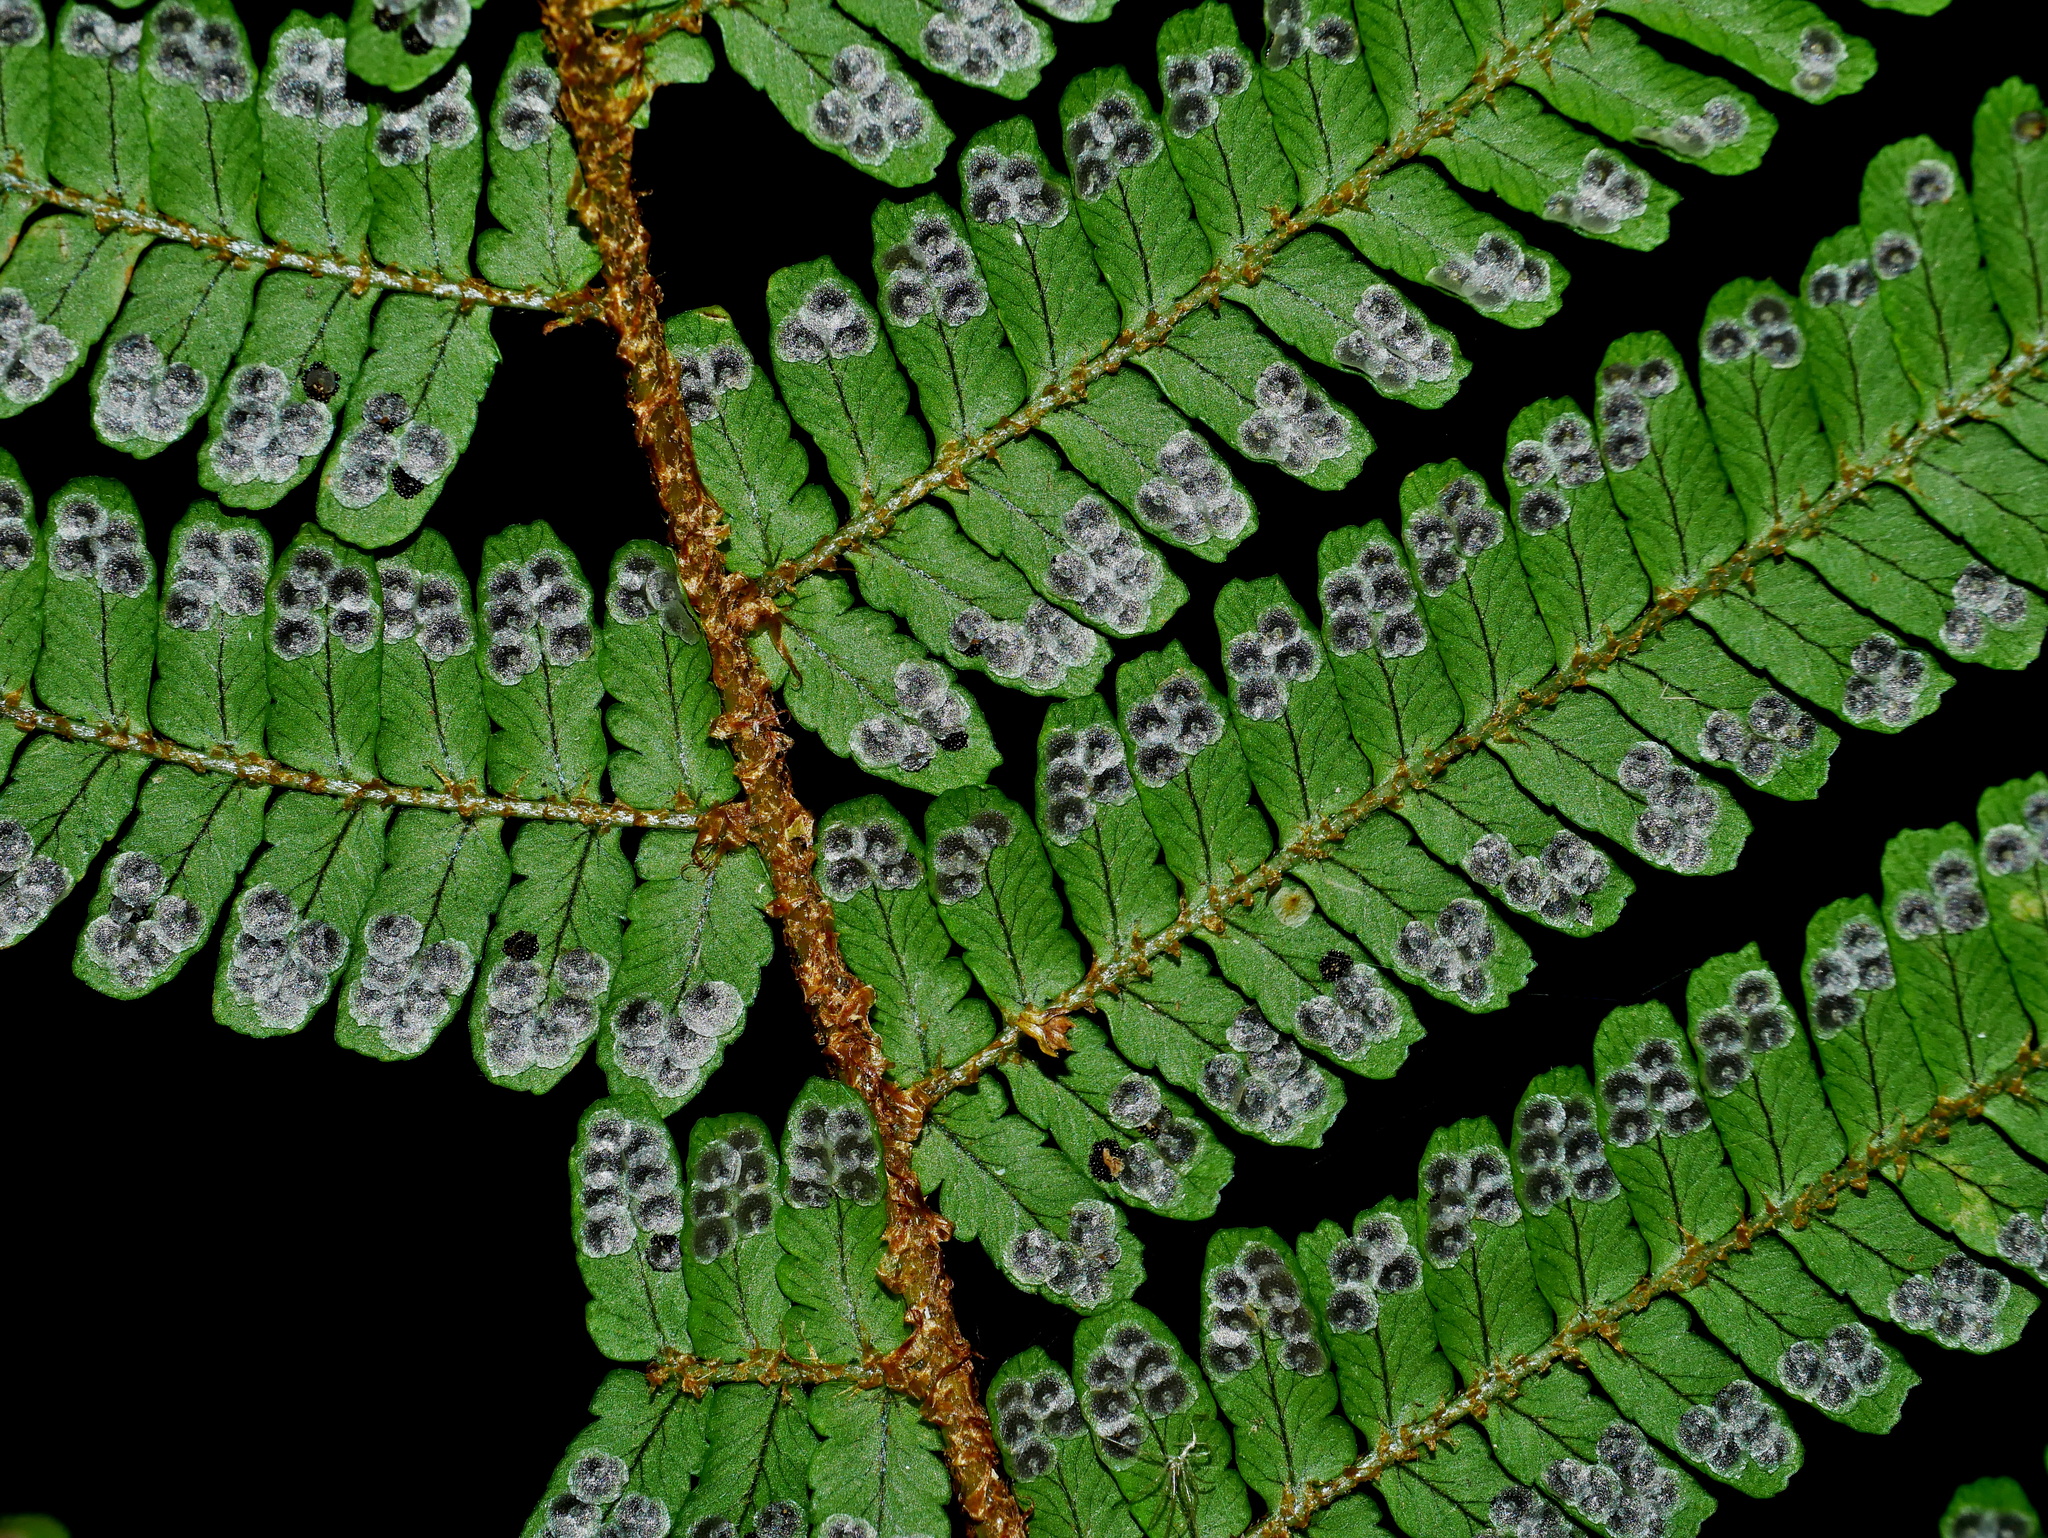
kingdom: Plantae
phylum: Tracheophyta
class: Polypodiopsida
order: Polypodiales
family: Dryopteridaceae
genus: Dryopteris
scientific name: Dryopteris apiciflora
